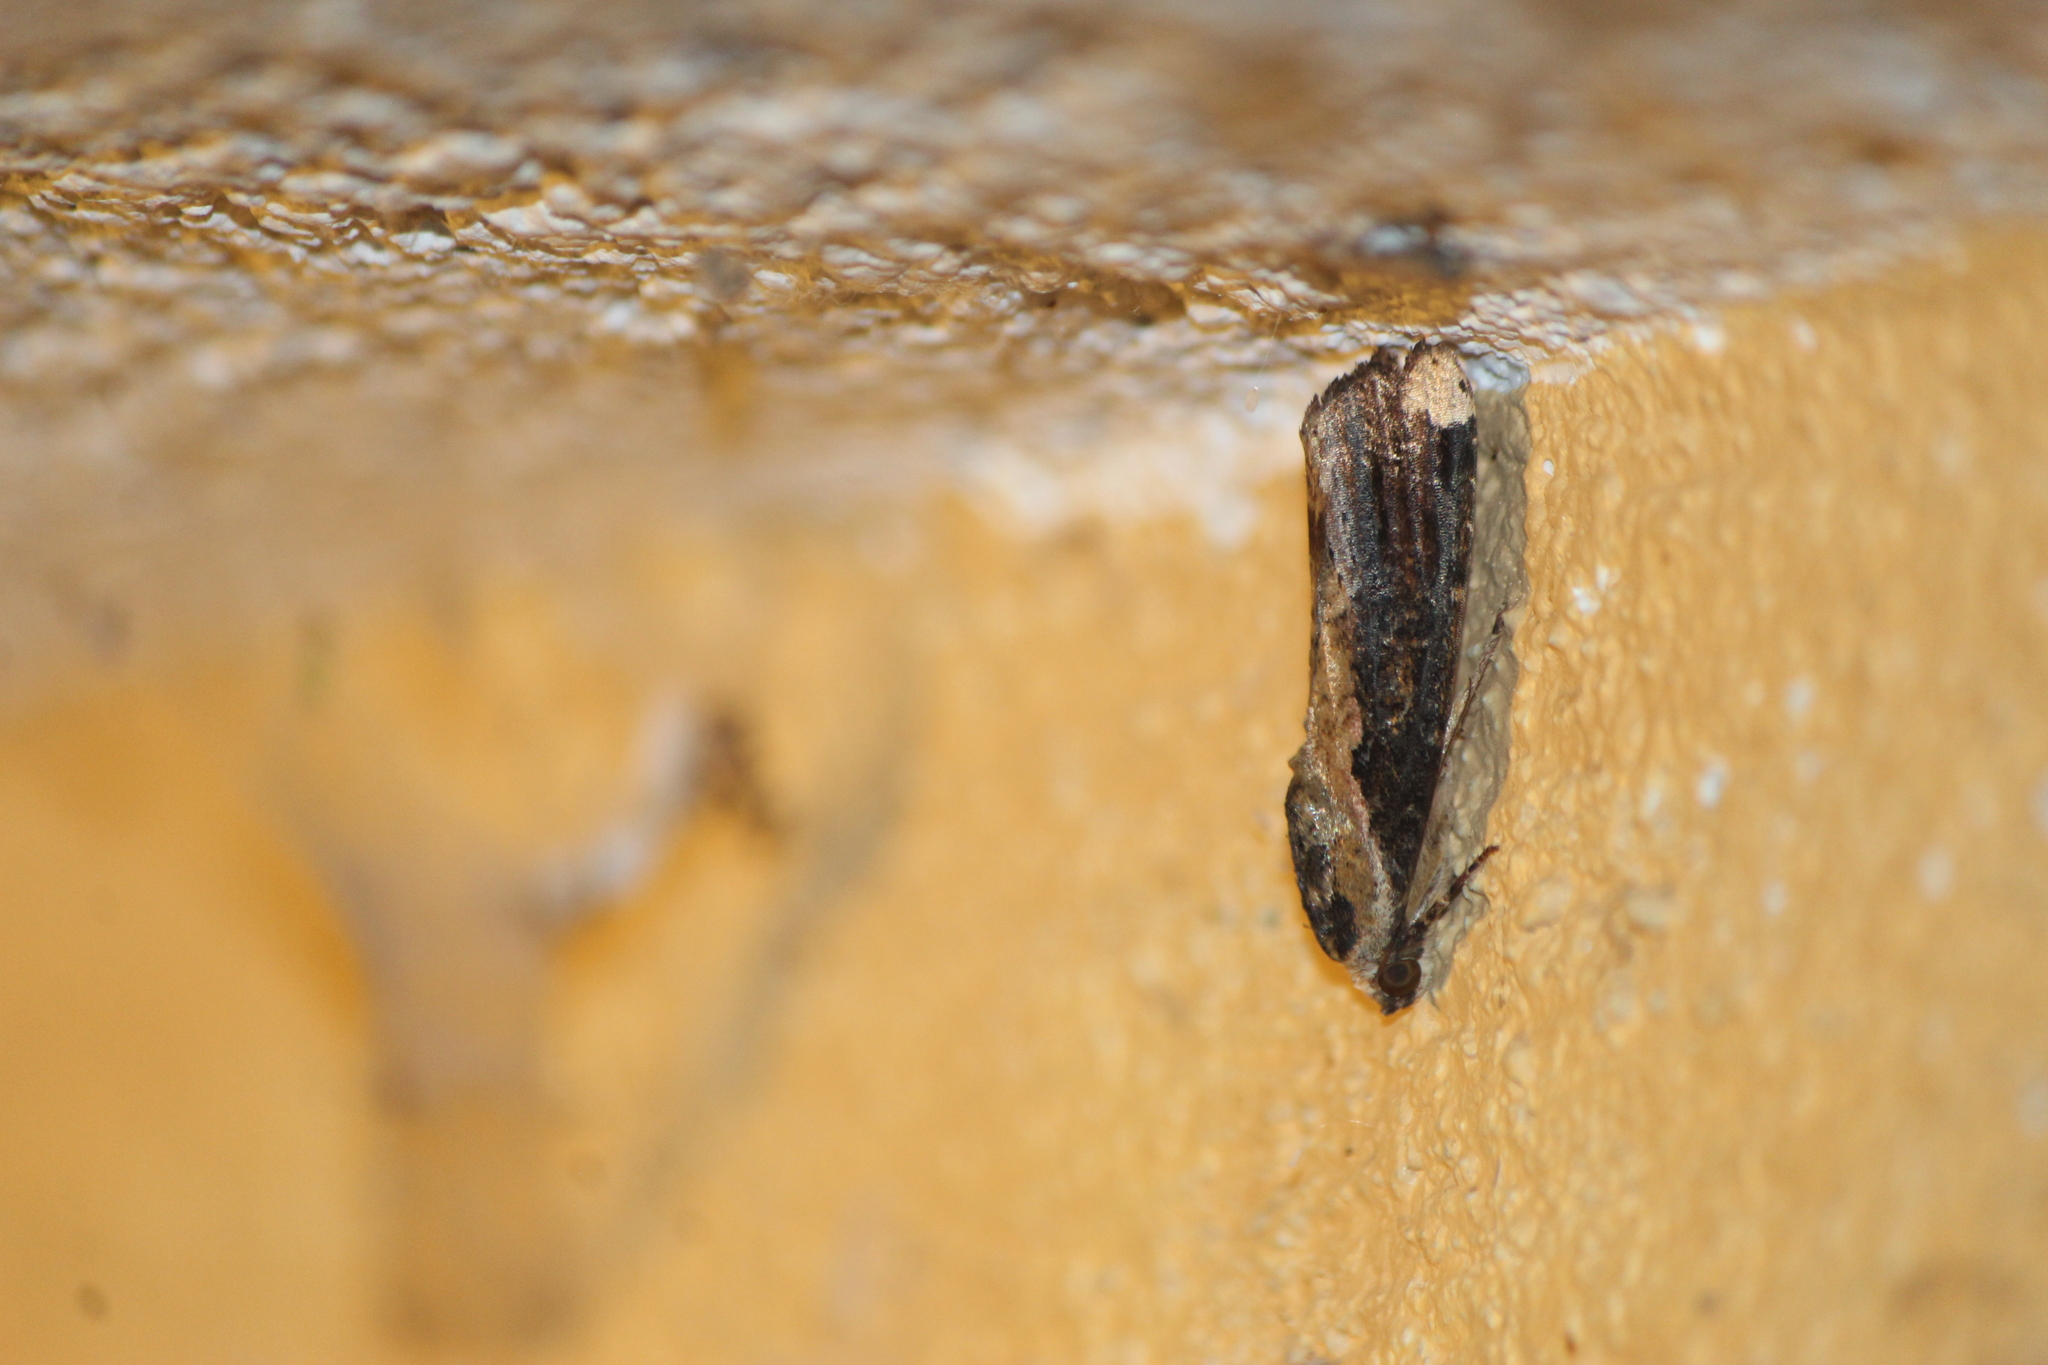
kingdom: Animalia
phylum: Arthropoda
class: Insecta
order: Lepidoptera
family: Noctuidae
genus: Magusa
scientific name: Magusa divaricata
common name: Orb narrow-winged moth
